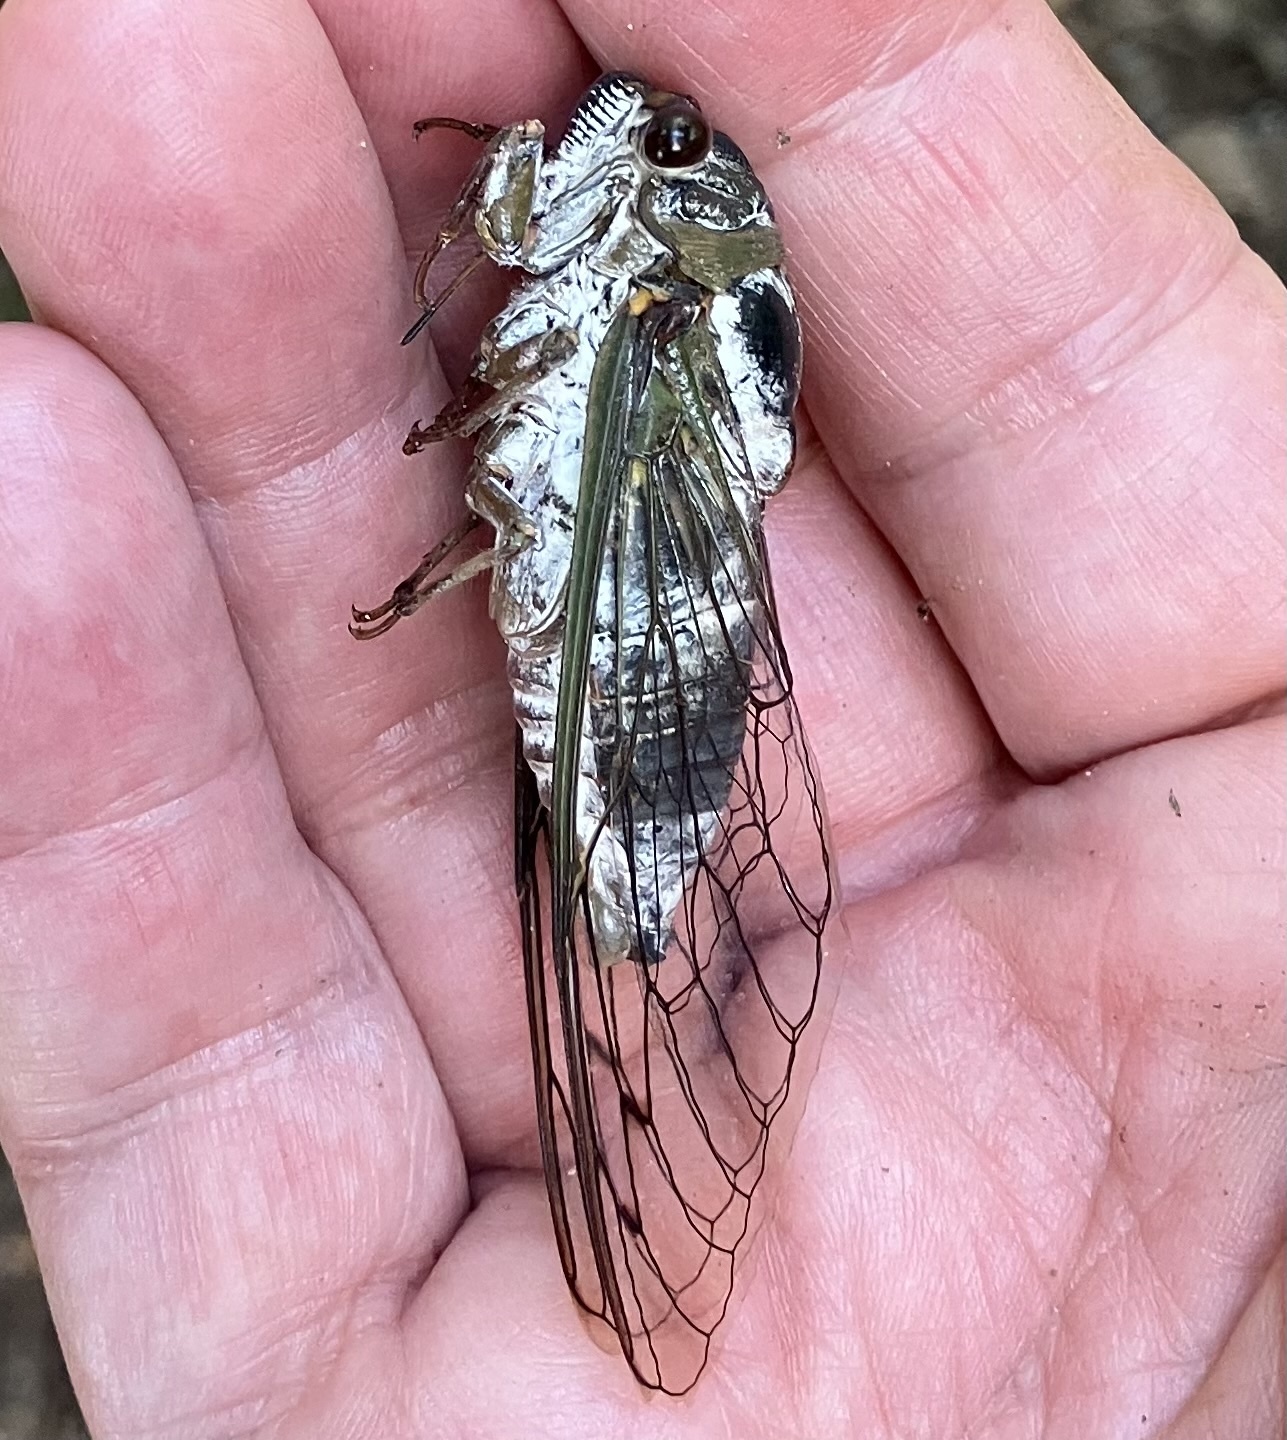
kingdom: Animalia
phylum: Arthropoda
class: Insecta
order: Hemiptera
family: Cicadidae
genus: Diceroprocta
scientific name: Diceroprocta grossa
